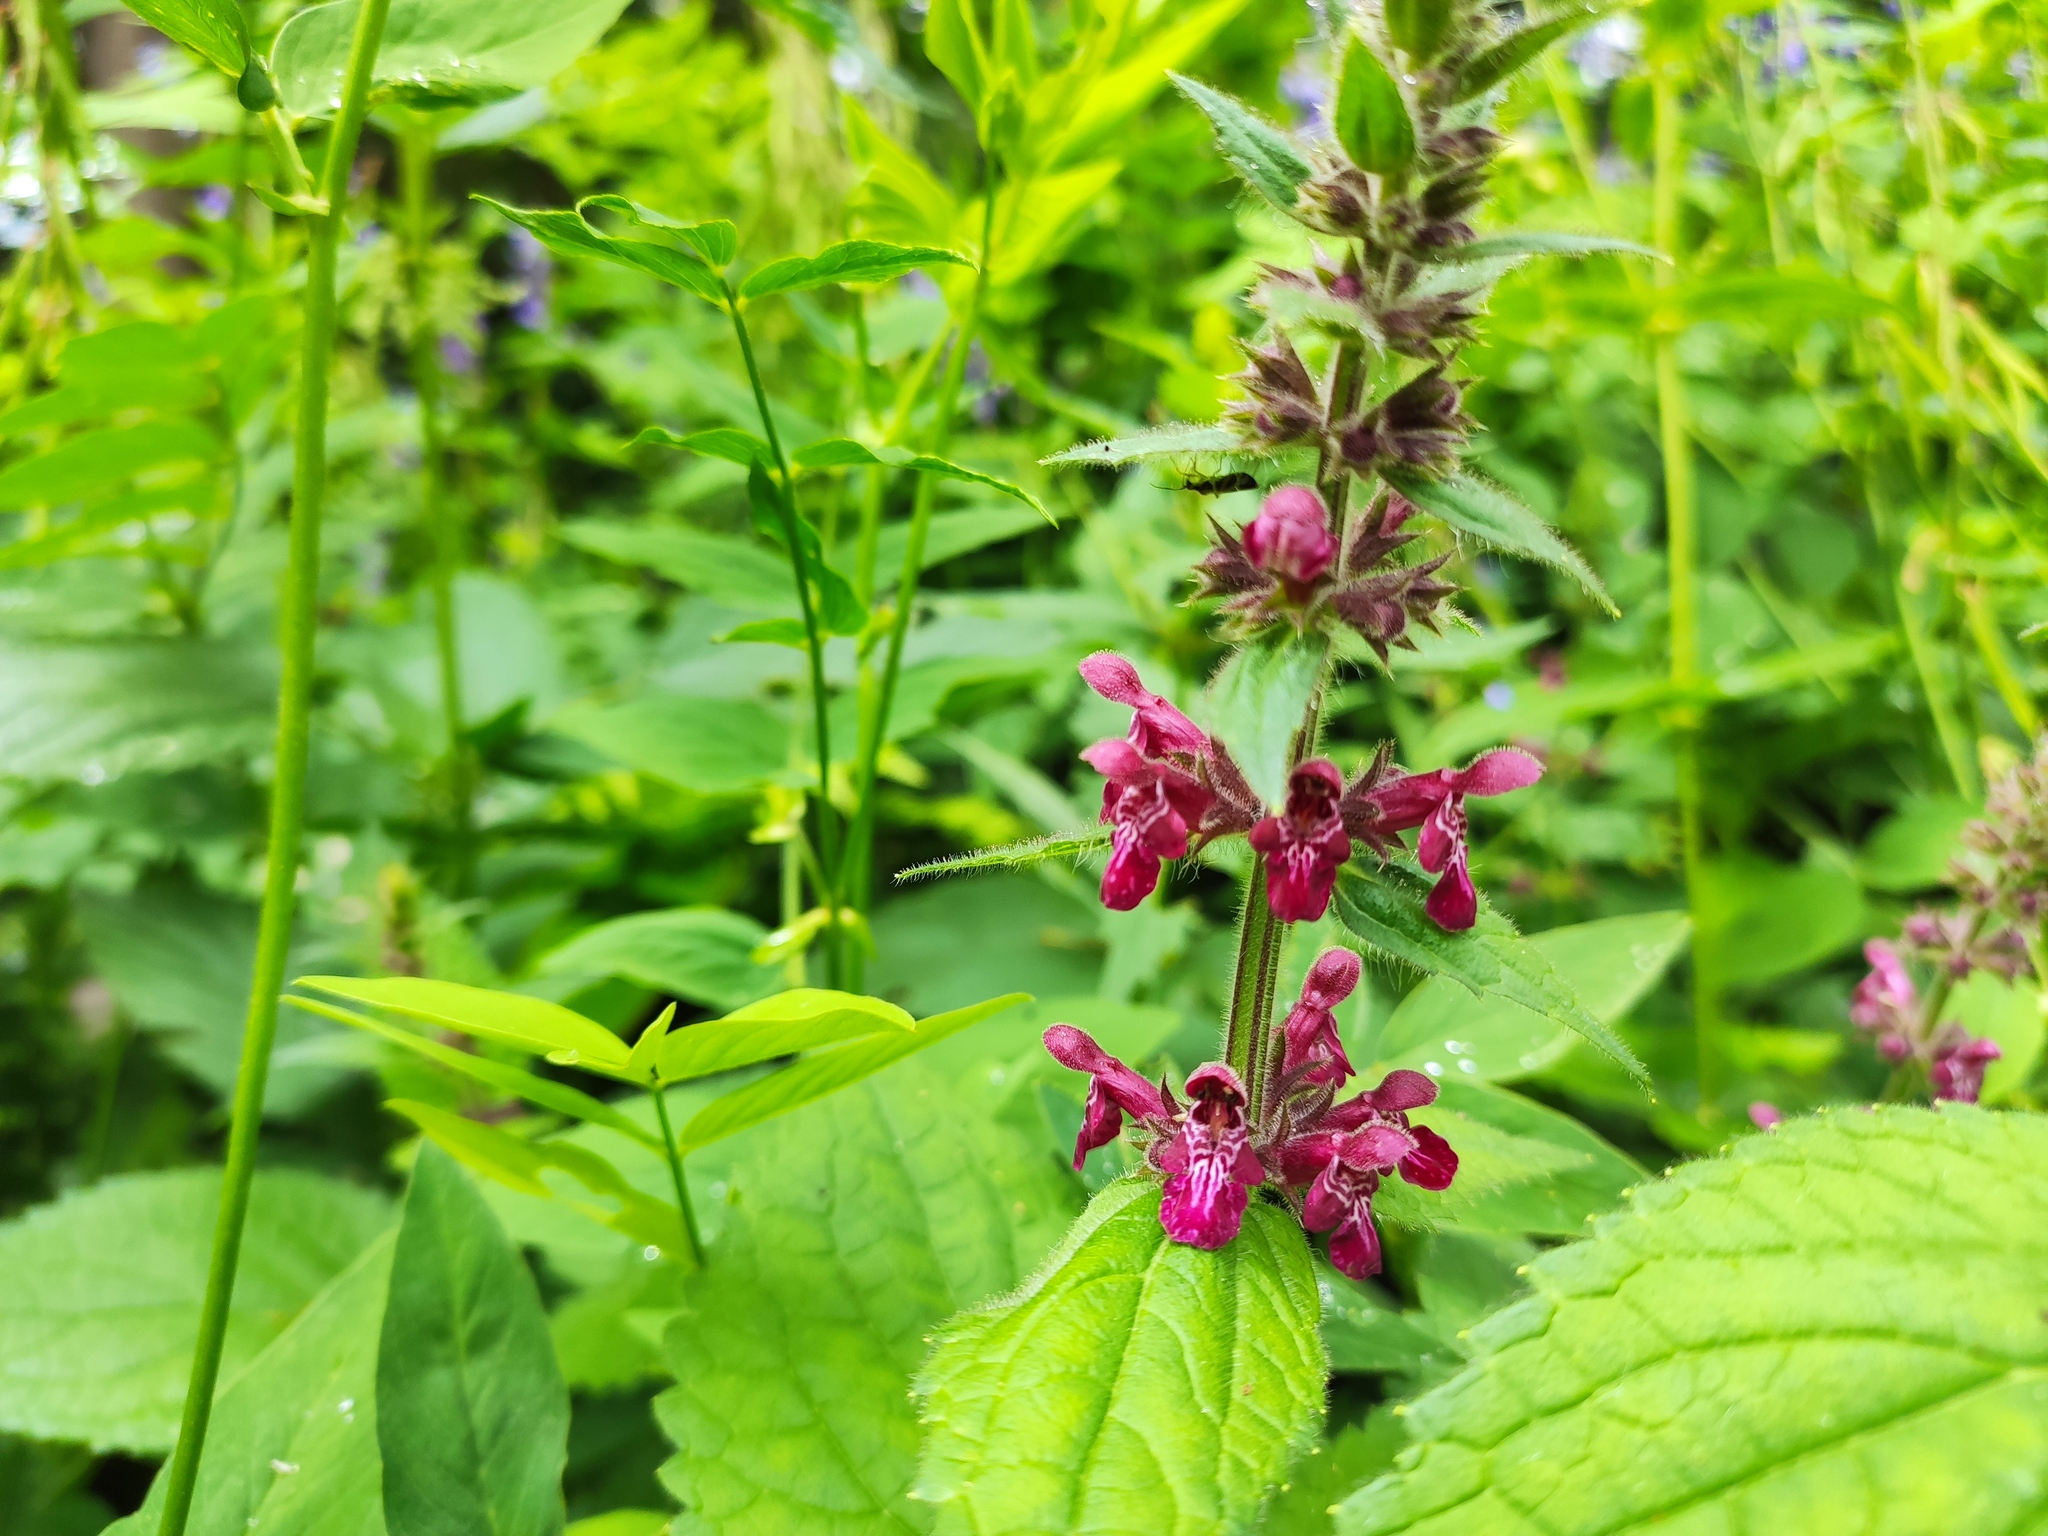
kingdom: Plantae
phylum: Tracheophyta
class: Magnoliopsida
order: Lamiales
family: Lamiaceae
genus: Stachys
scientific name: Stachys sylvatica
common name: Hedge woundwort
